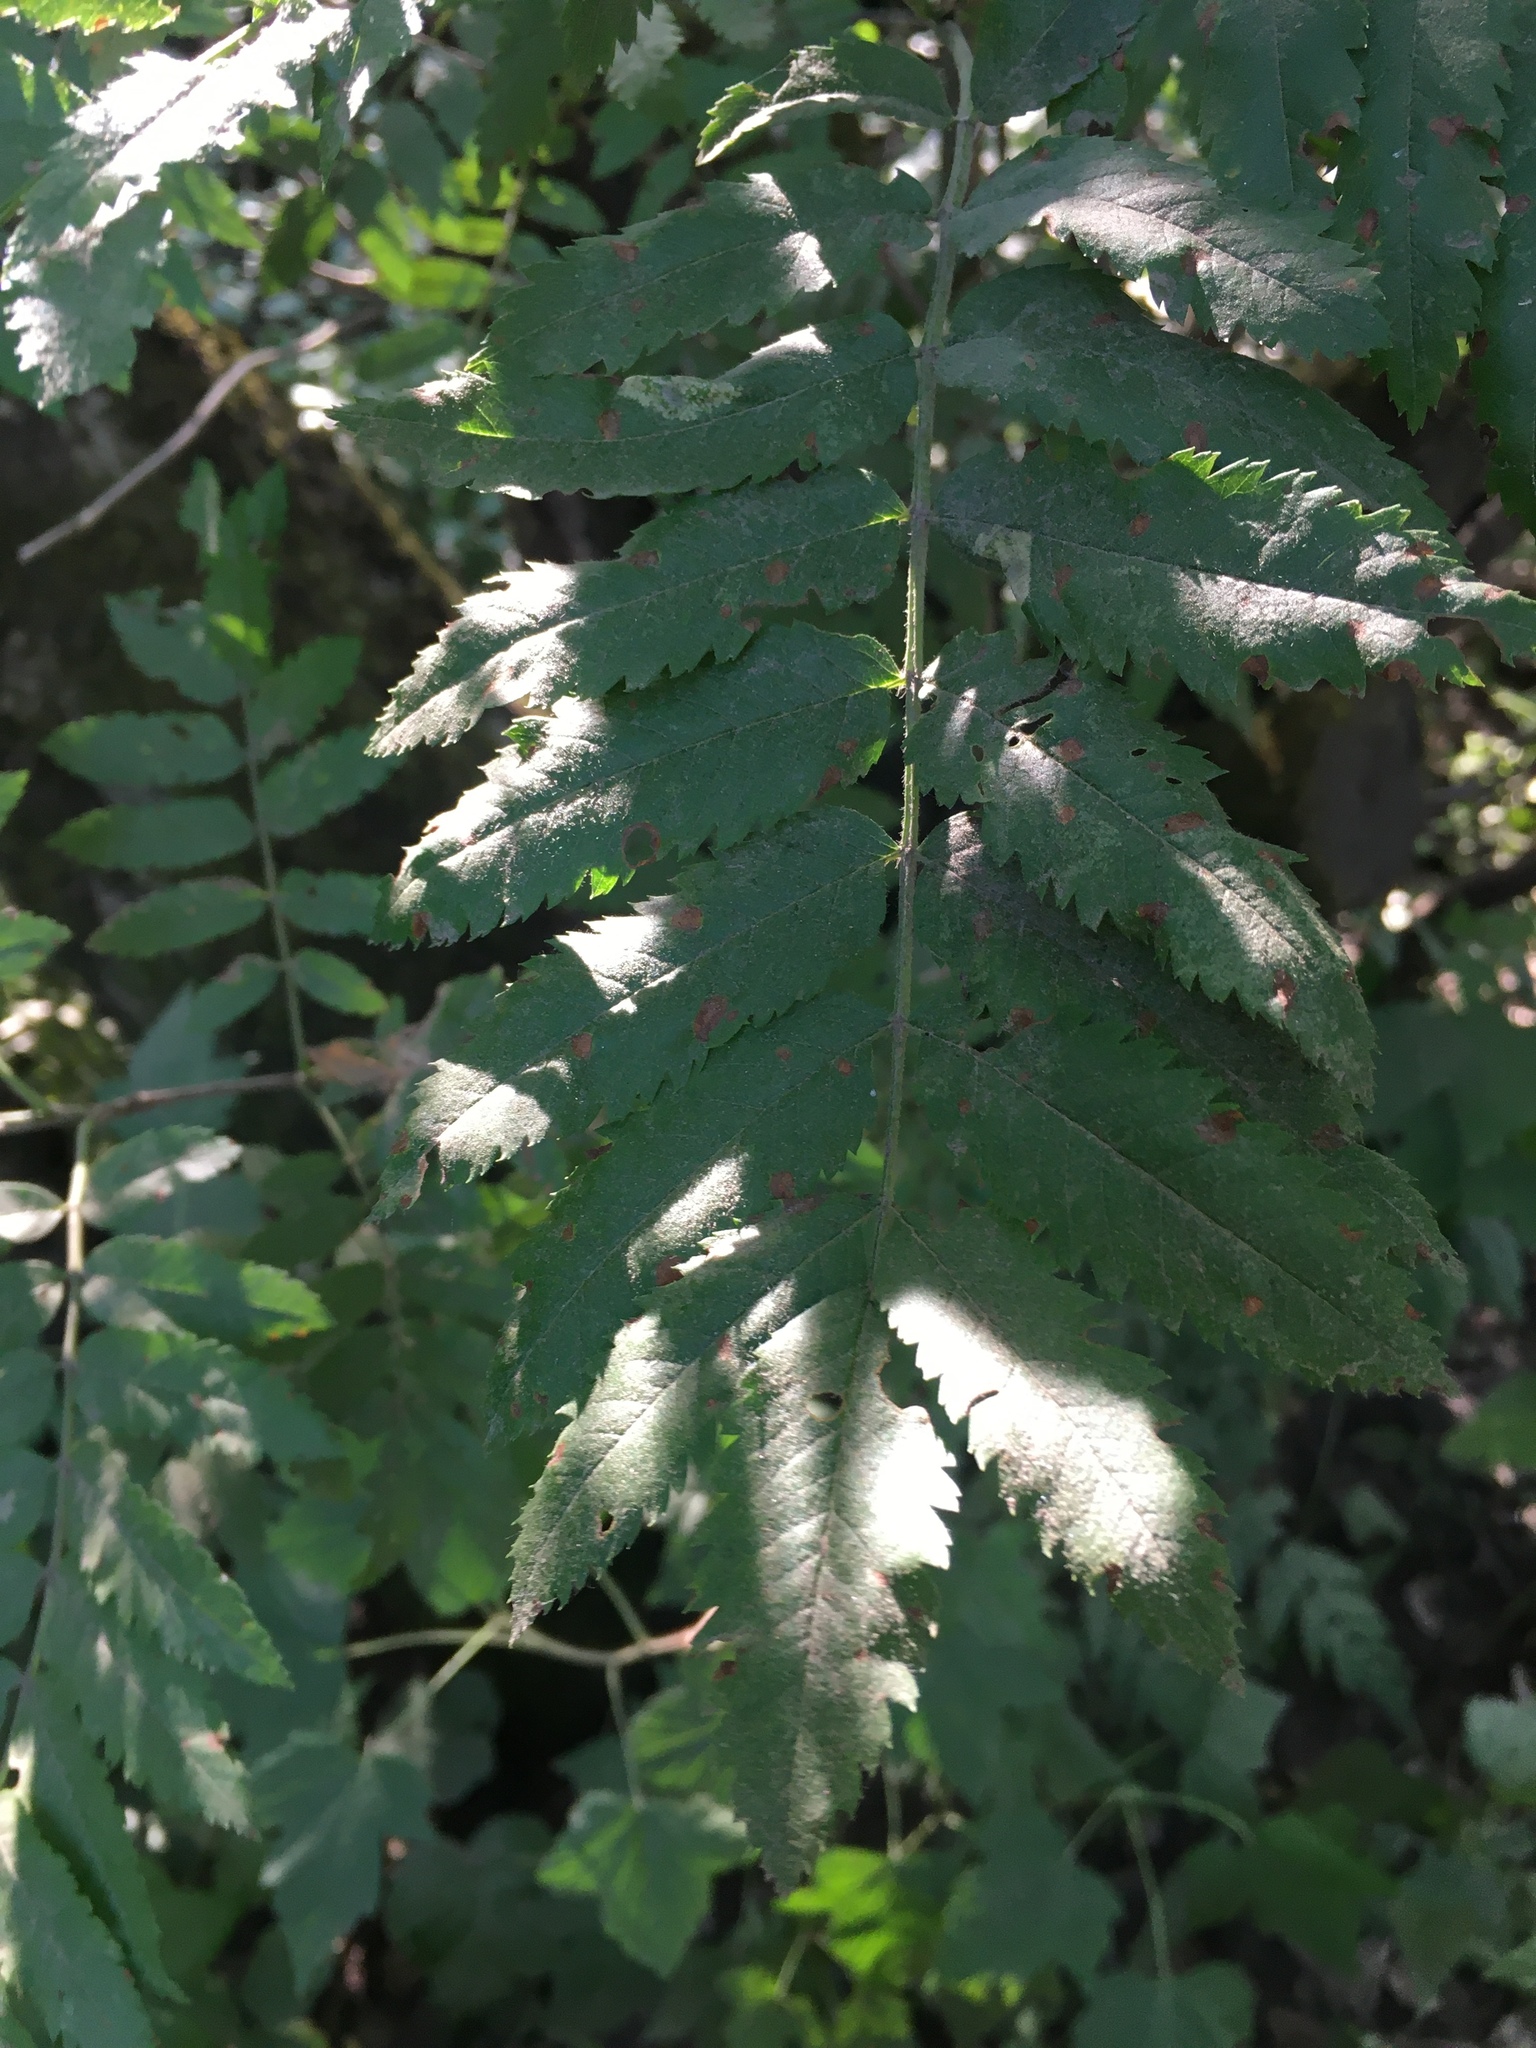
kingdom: Plantae
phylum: Tracheophyta
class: Magnoliopsida
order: Rosales
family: Rosaceae
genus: Sorbus
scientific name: Sorbus aucuparia
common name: Rowan
